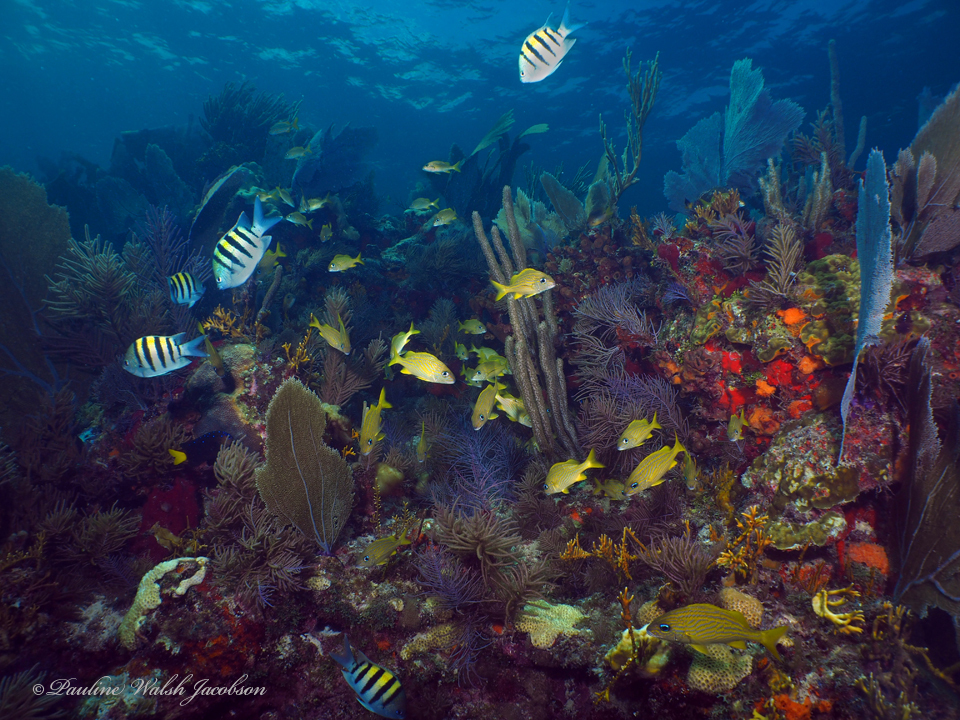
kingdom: Animalia
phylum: Chordata
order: Perciformes
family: Pomacentridae
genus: Abudefduf
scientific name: Abudefduf saxatilis
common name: Sergeant major
